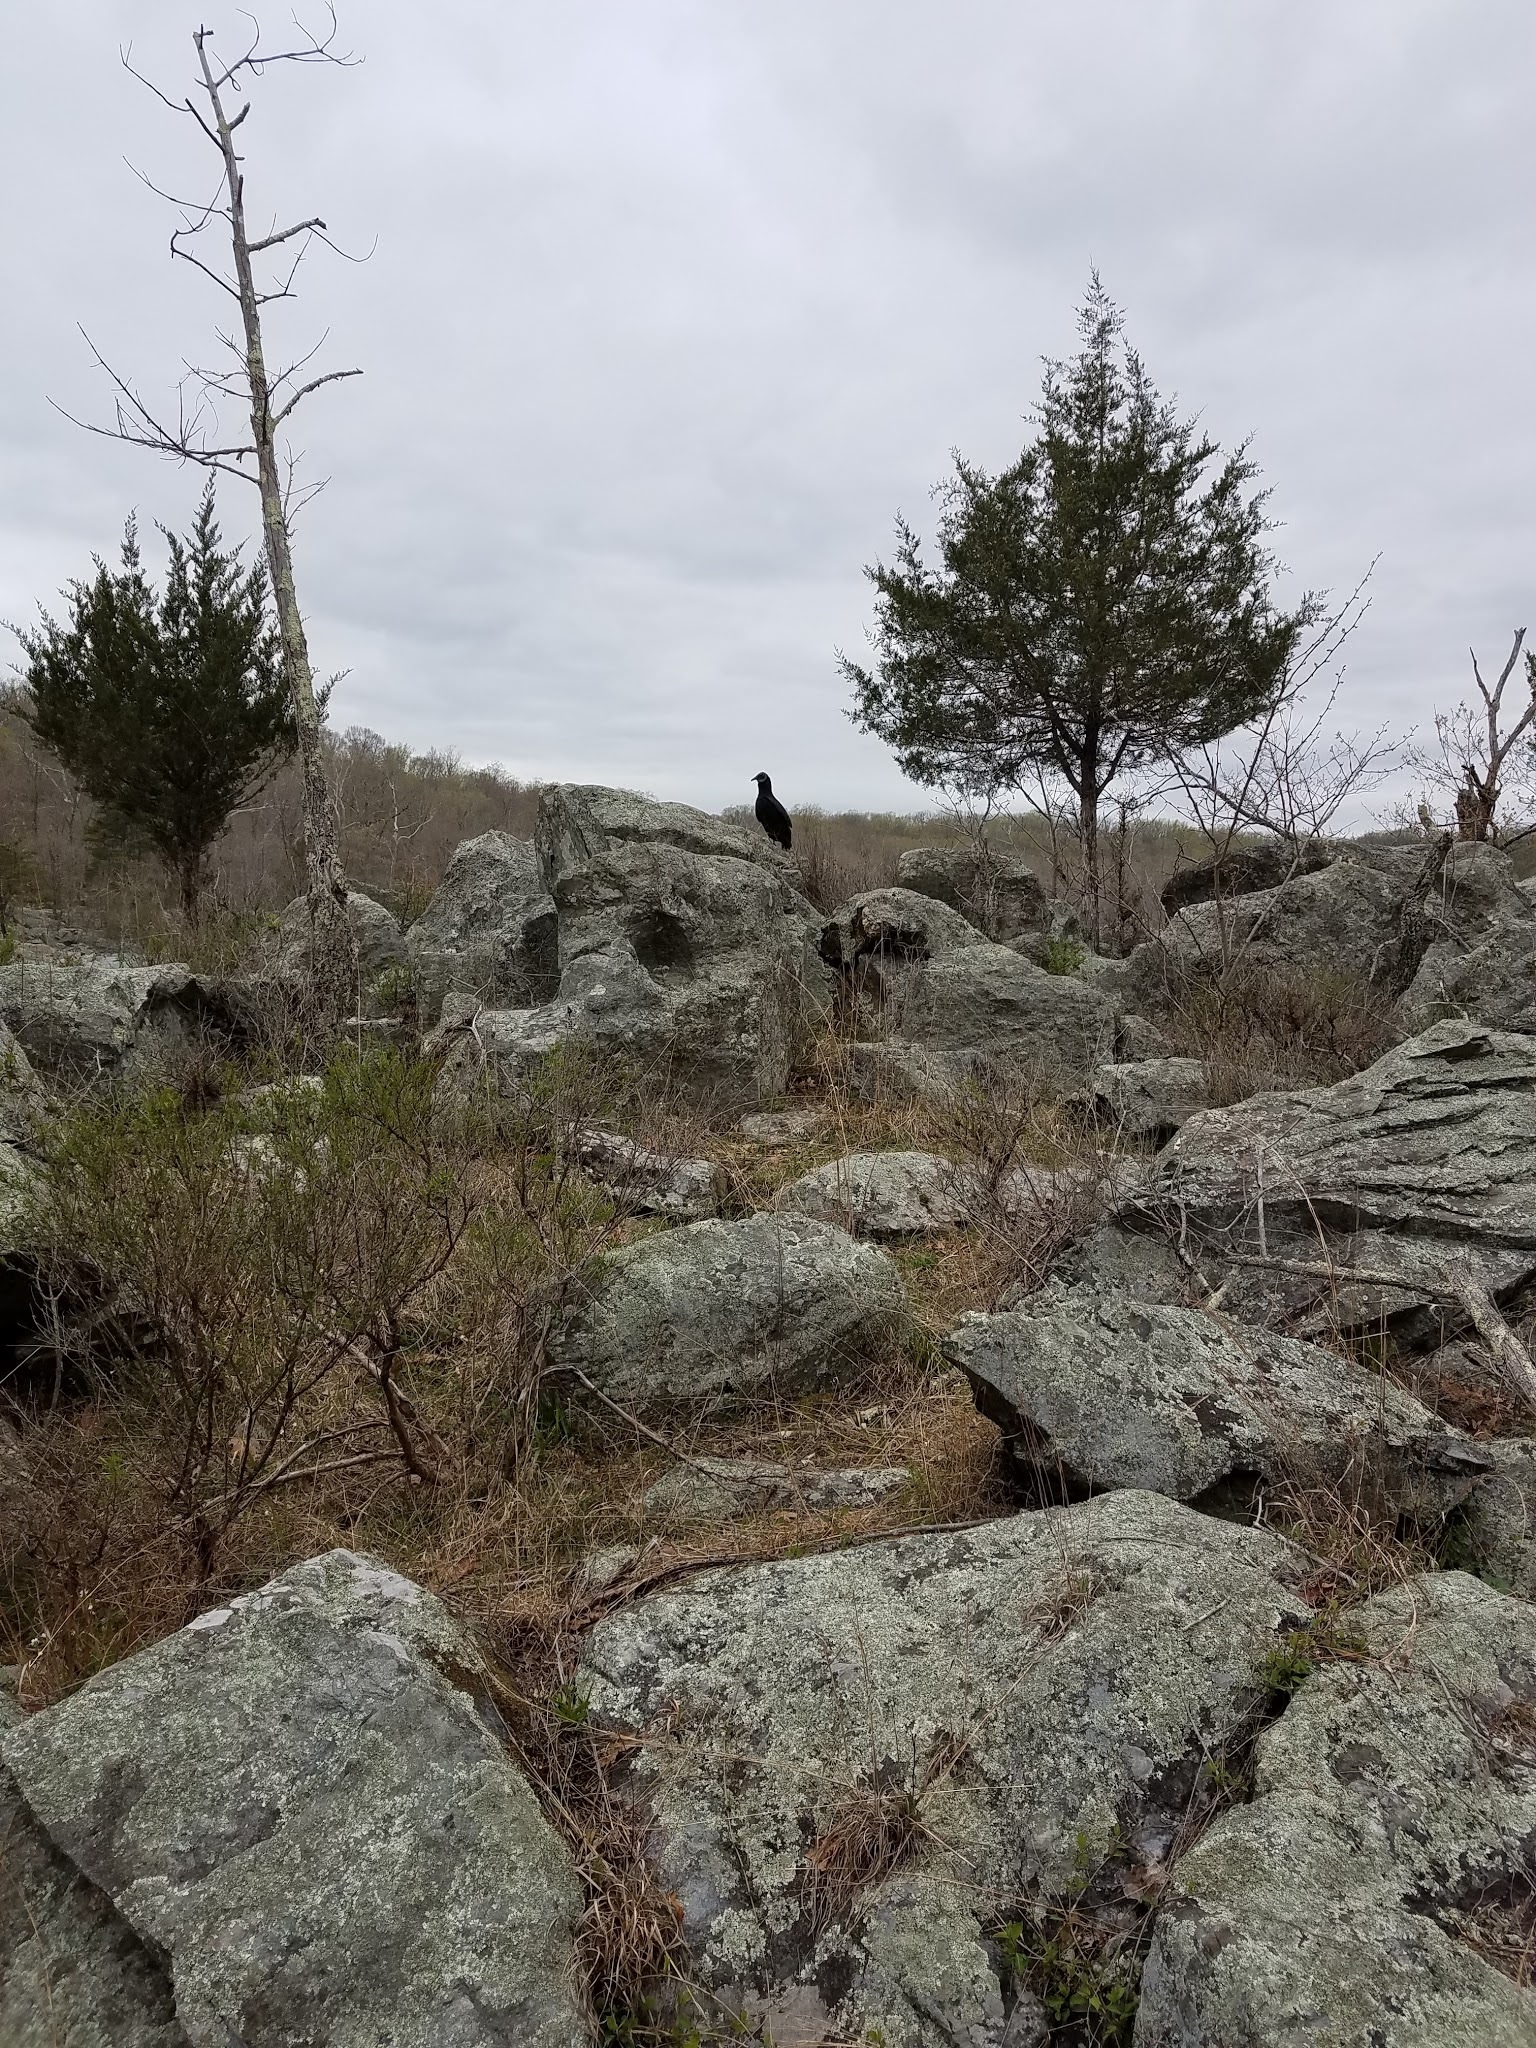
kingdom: Animalia
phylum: Chordata
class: Aves
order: Accipitriformes
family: Cathartidae
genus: Coragyps
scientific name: Coragyps atratus
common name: Black vulture
